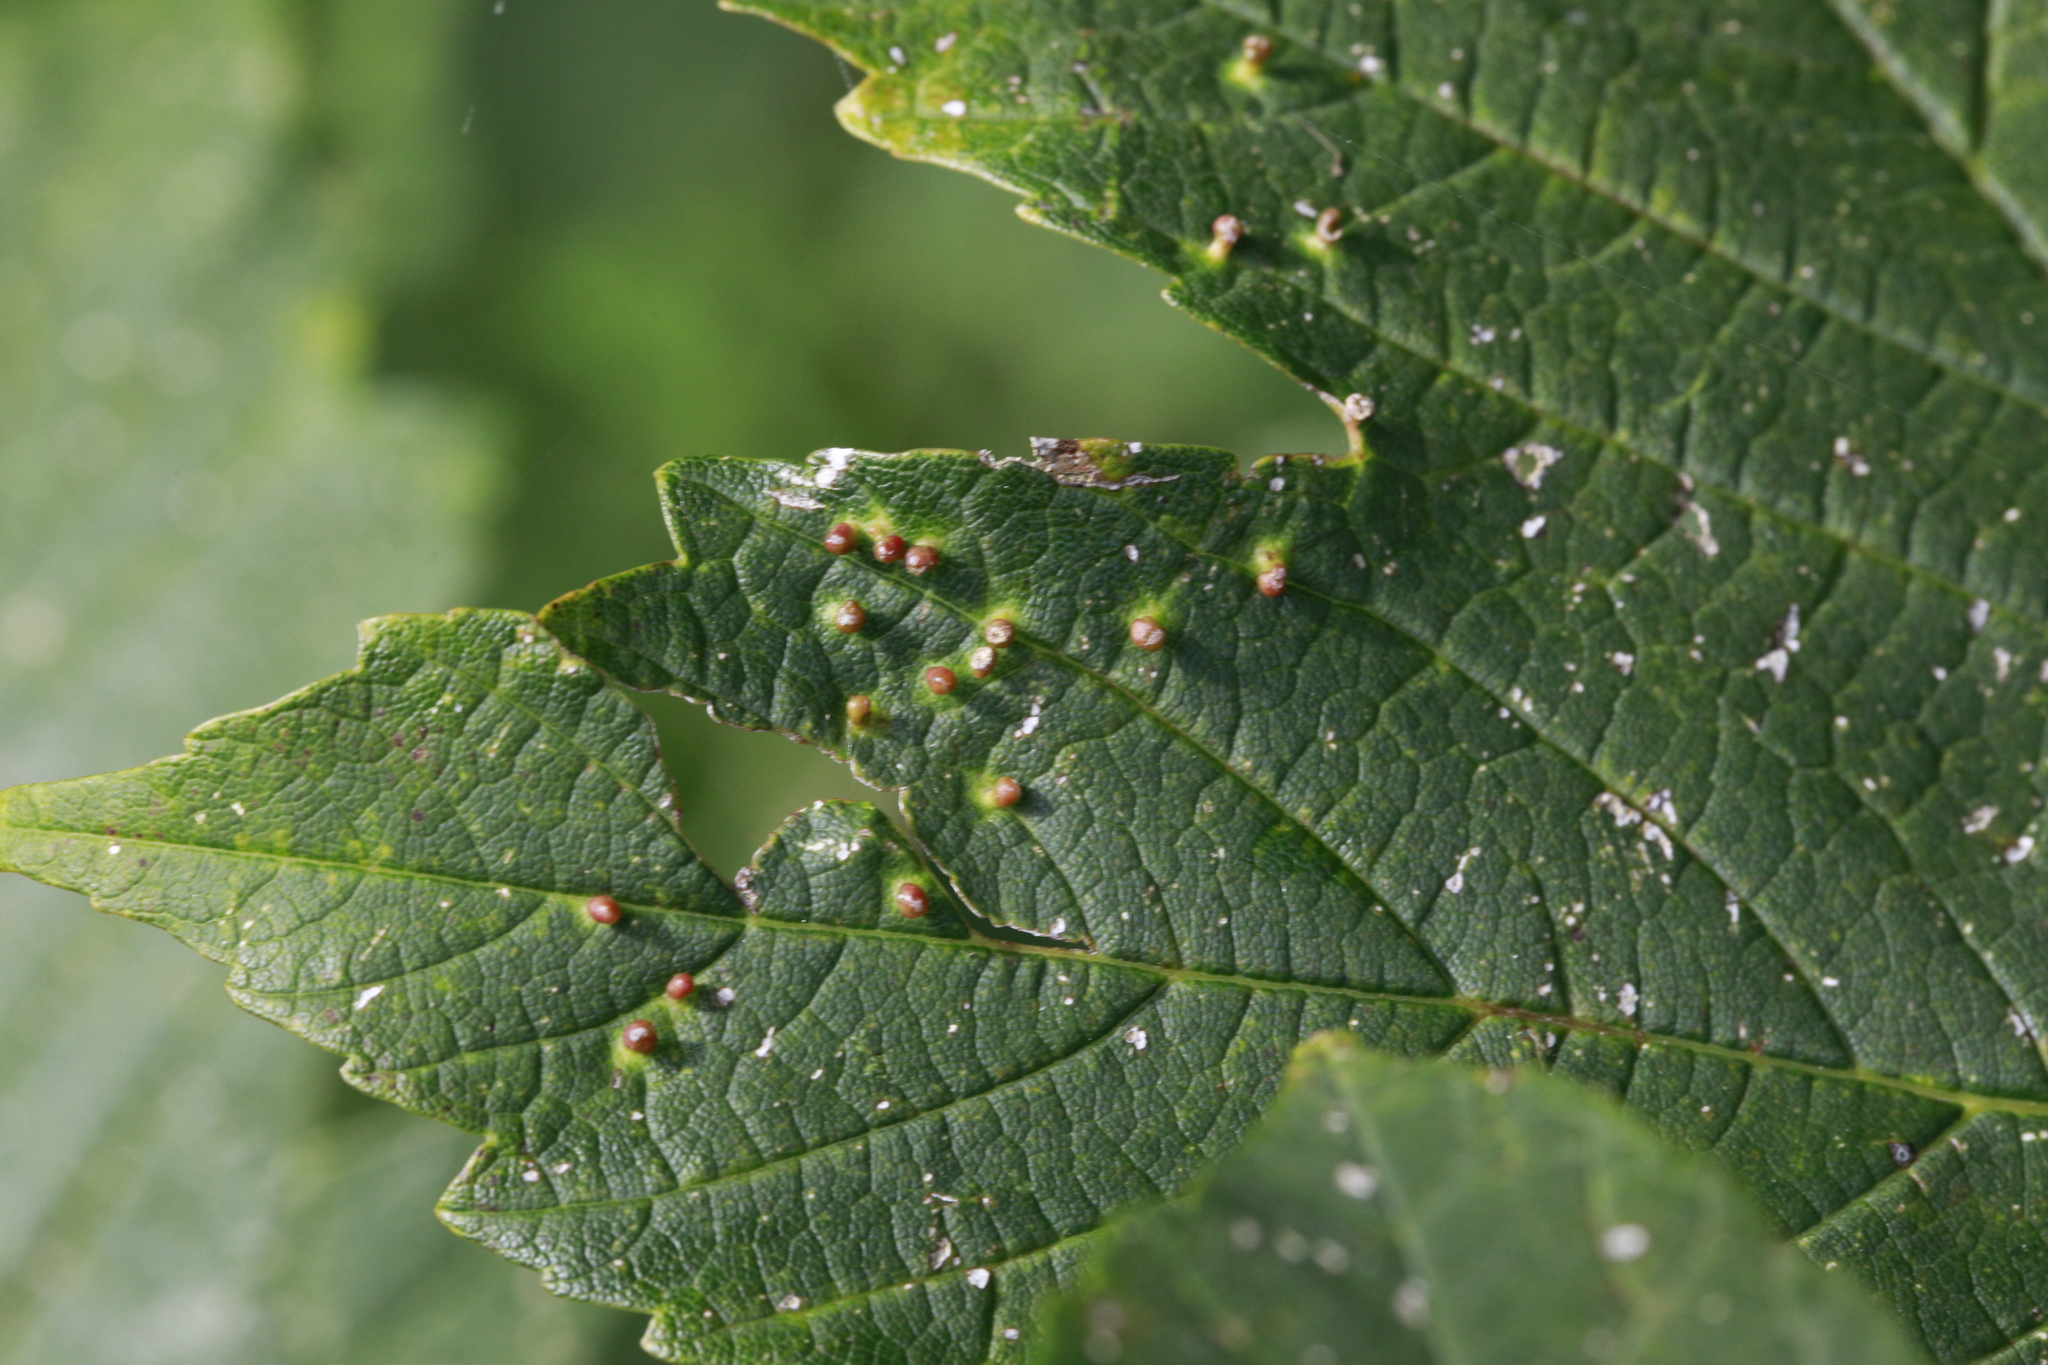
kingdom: Animalia
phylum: Arthropoda
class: Arachnida
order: Trombidiformes
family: Eriophyidae
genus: Aceria
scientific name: Aceria cephaloneus
